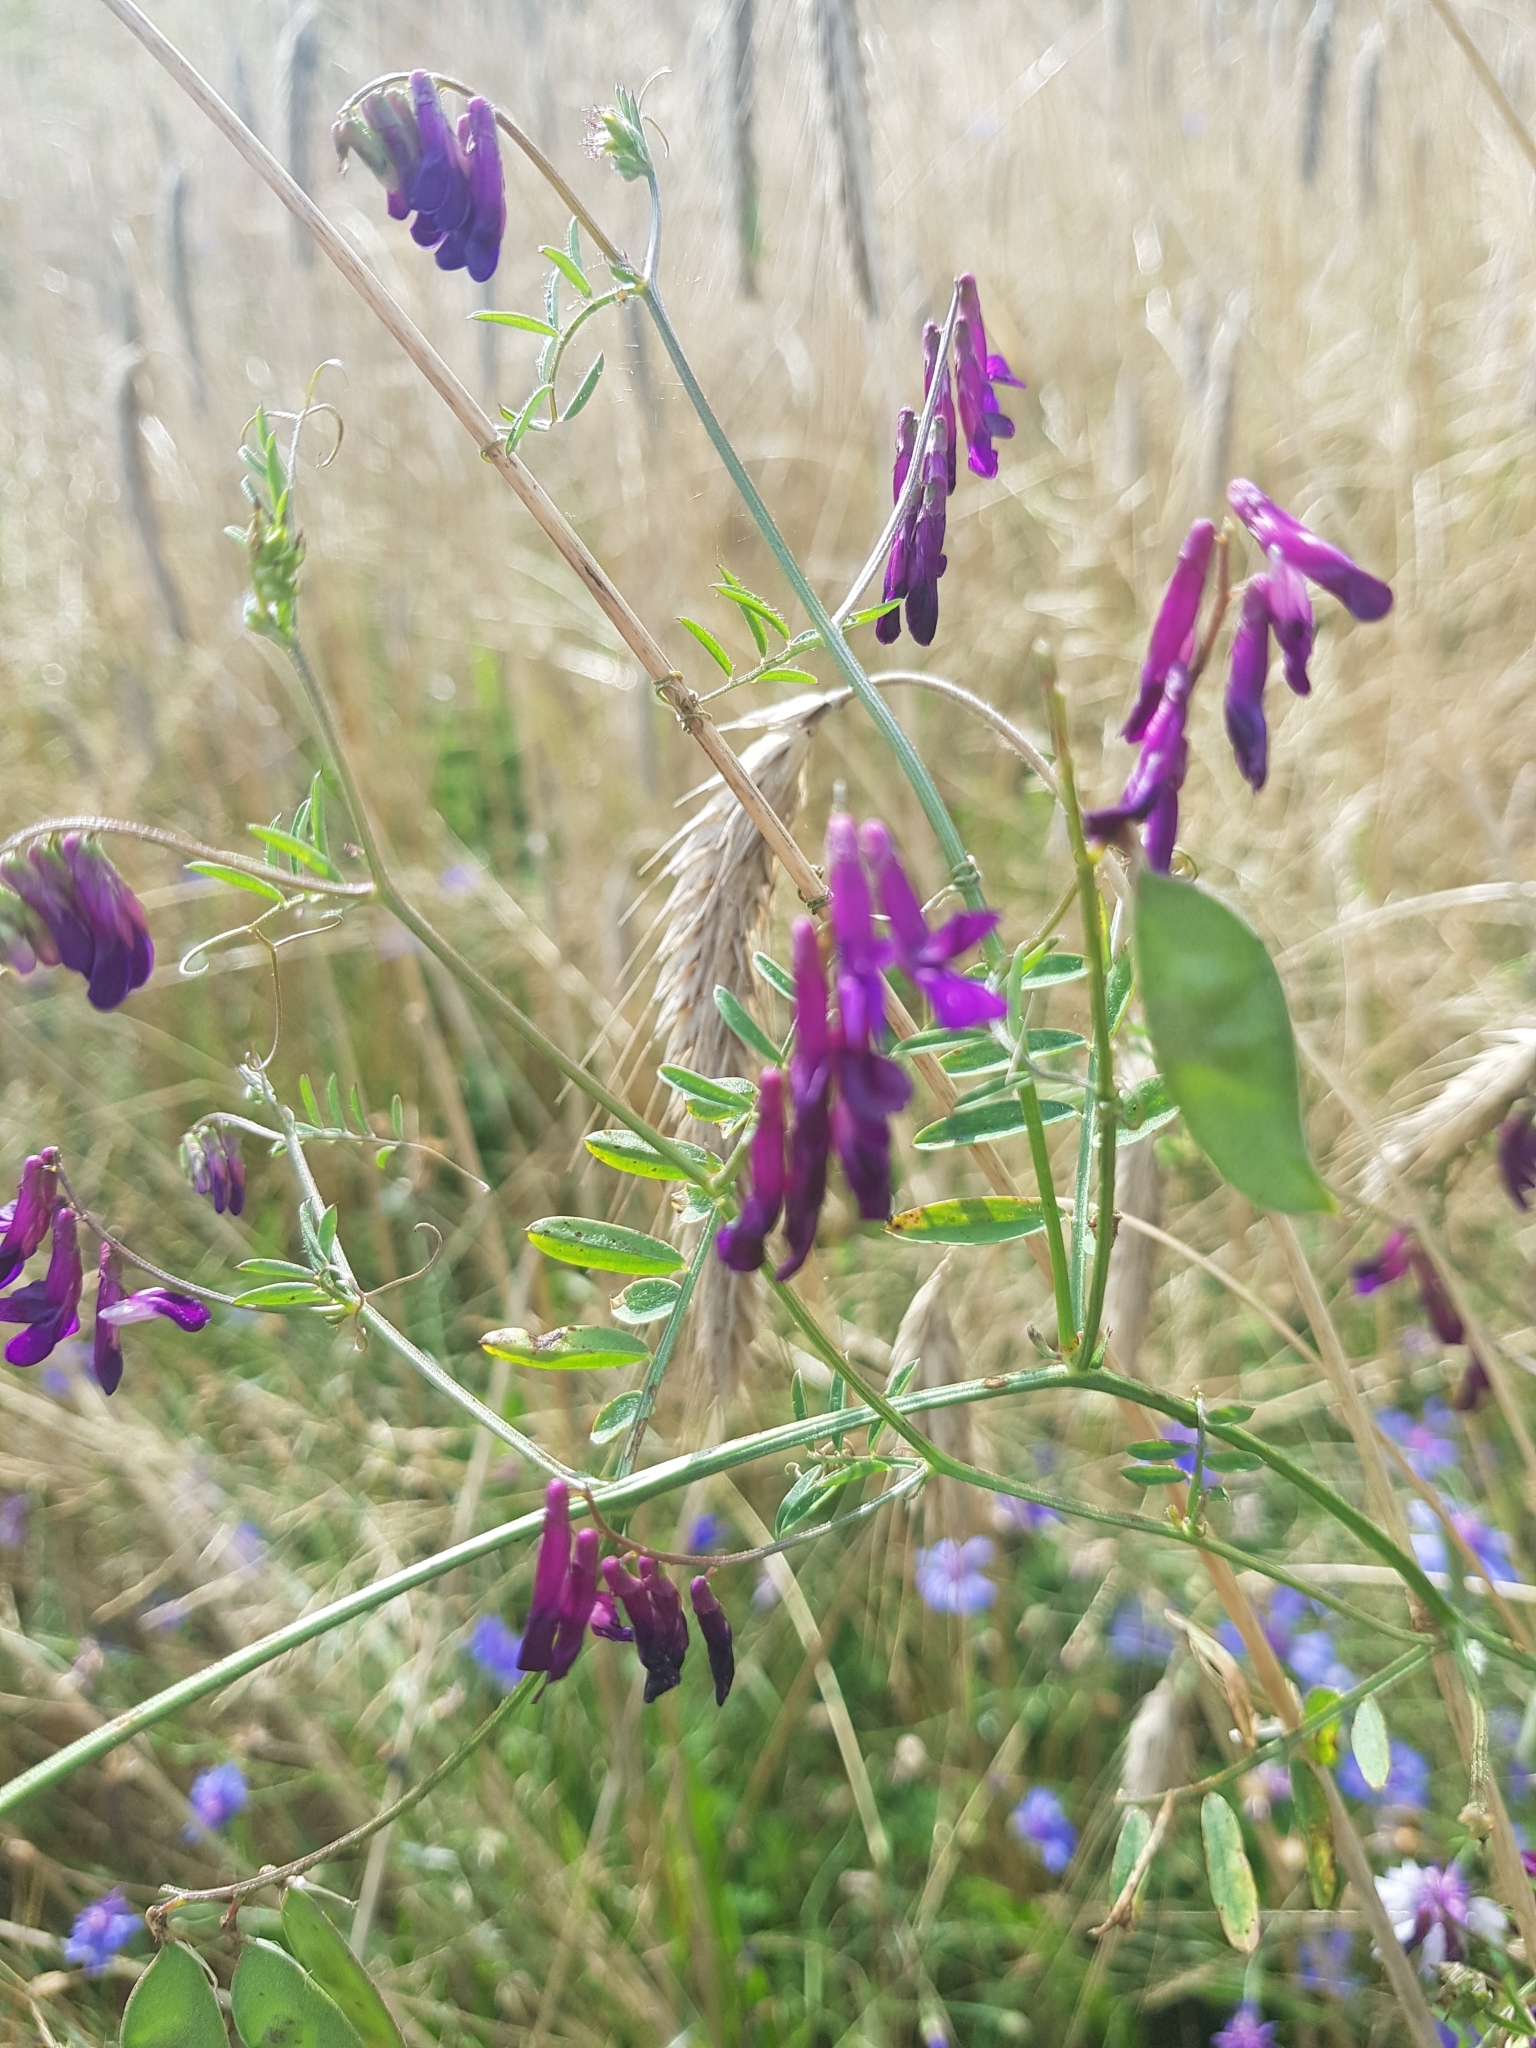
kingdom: Plantae
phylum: Tracheophyta
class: Magnoliopsida
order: Fabales
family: Fabaceae
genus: Vicia
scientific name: Vicia villosa
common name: Fodder vetch
